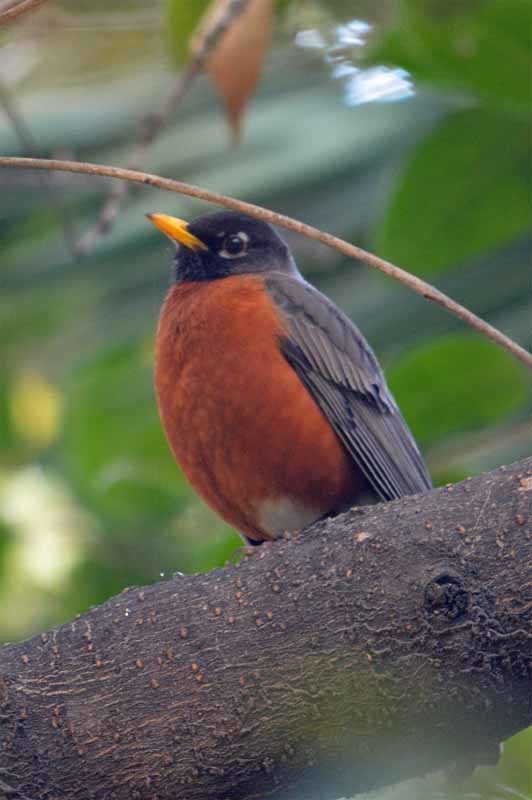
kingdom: Animalia
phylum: Chordata
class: Aves
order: Passeriformes
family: Turdidae
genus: Turdus
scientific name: Turdus migratorius
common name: American robin
